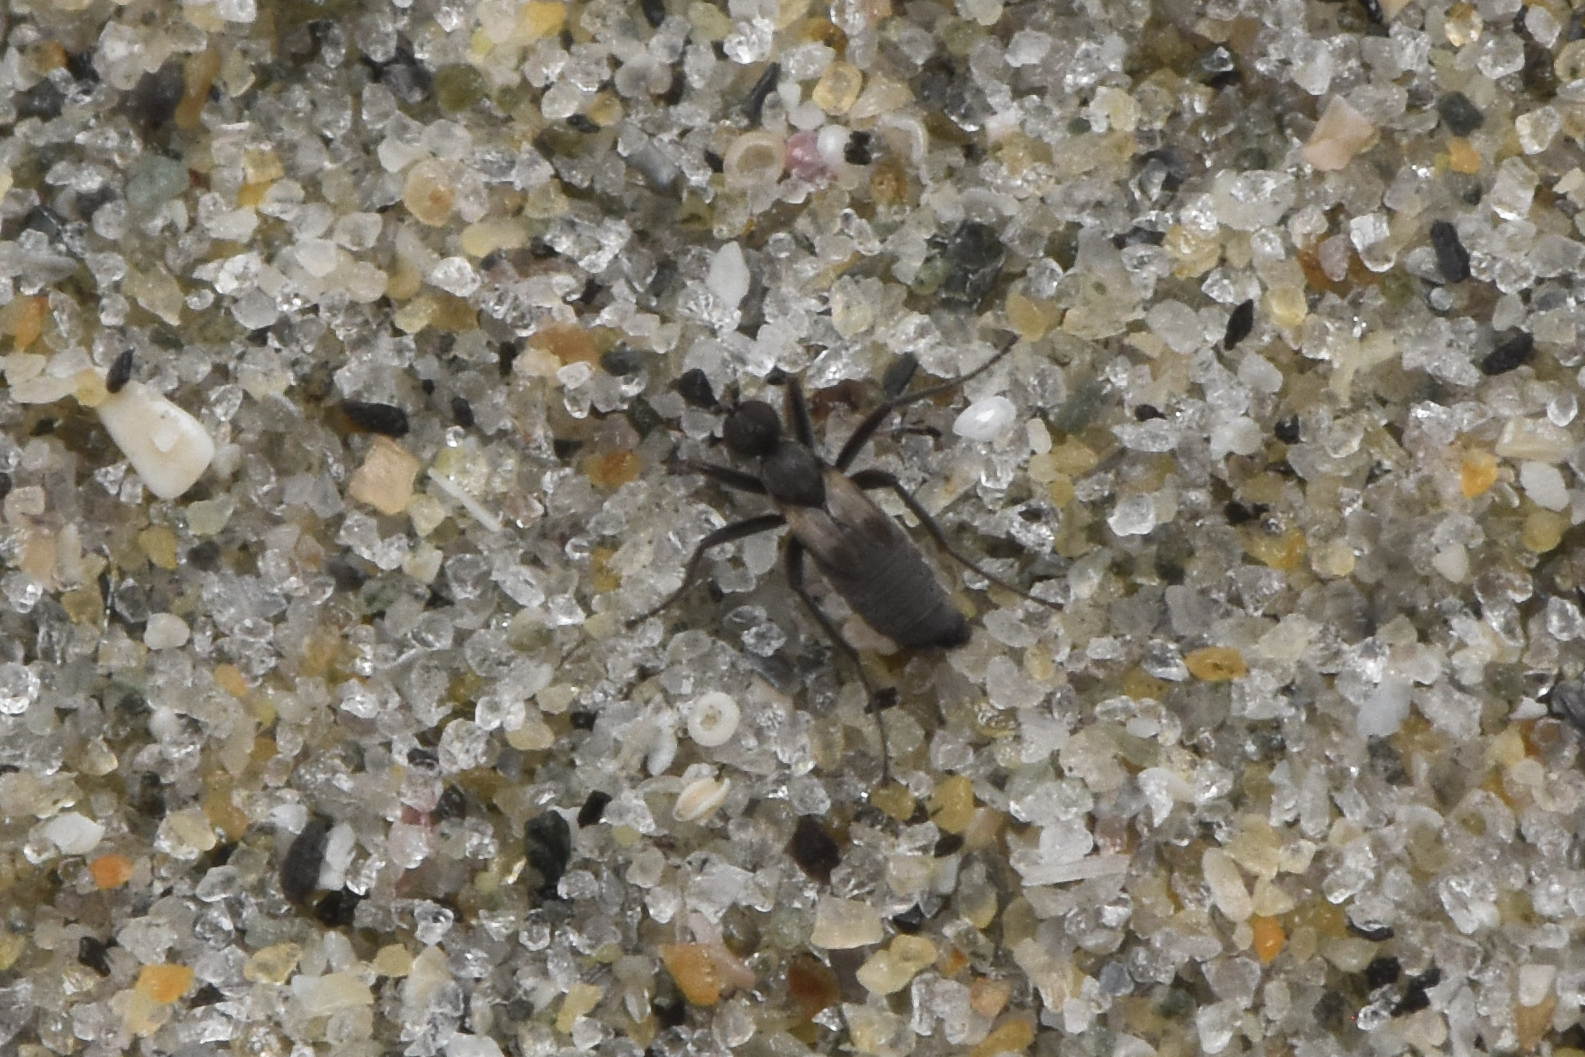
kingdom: Animalia
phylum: Arthropoda
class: Insecta
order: Diptera
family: Hybotidae
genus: Chersodromia
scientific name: Chersodromia parallela
